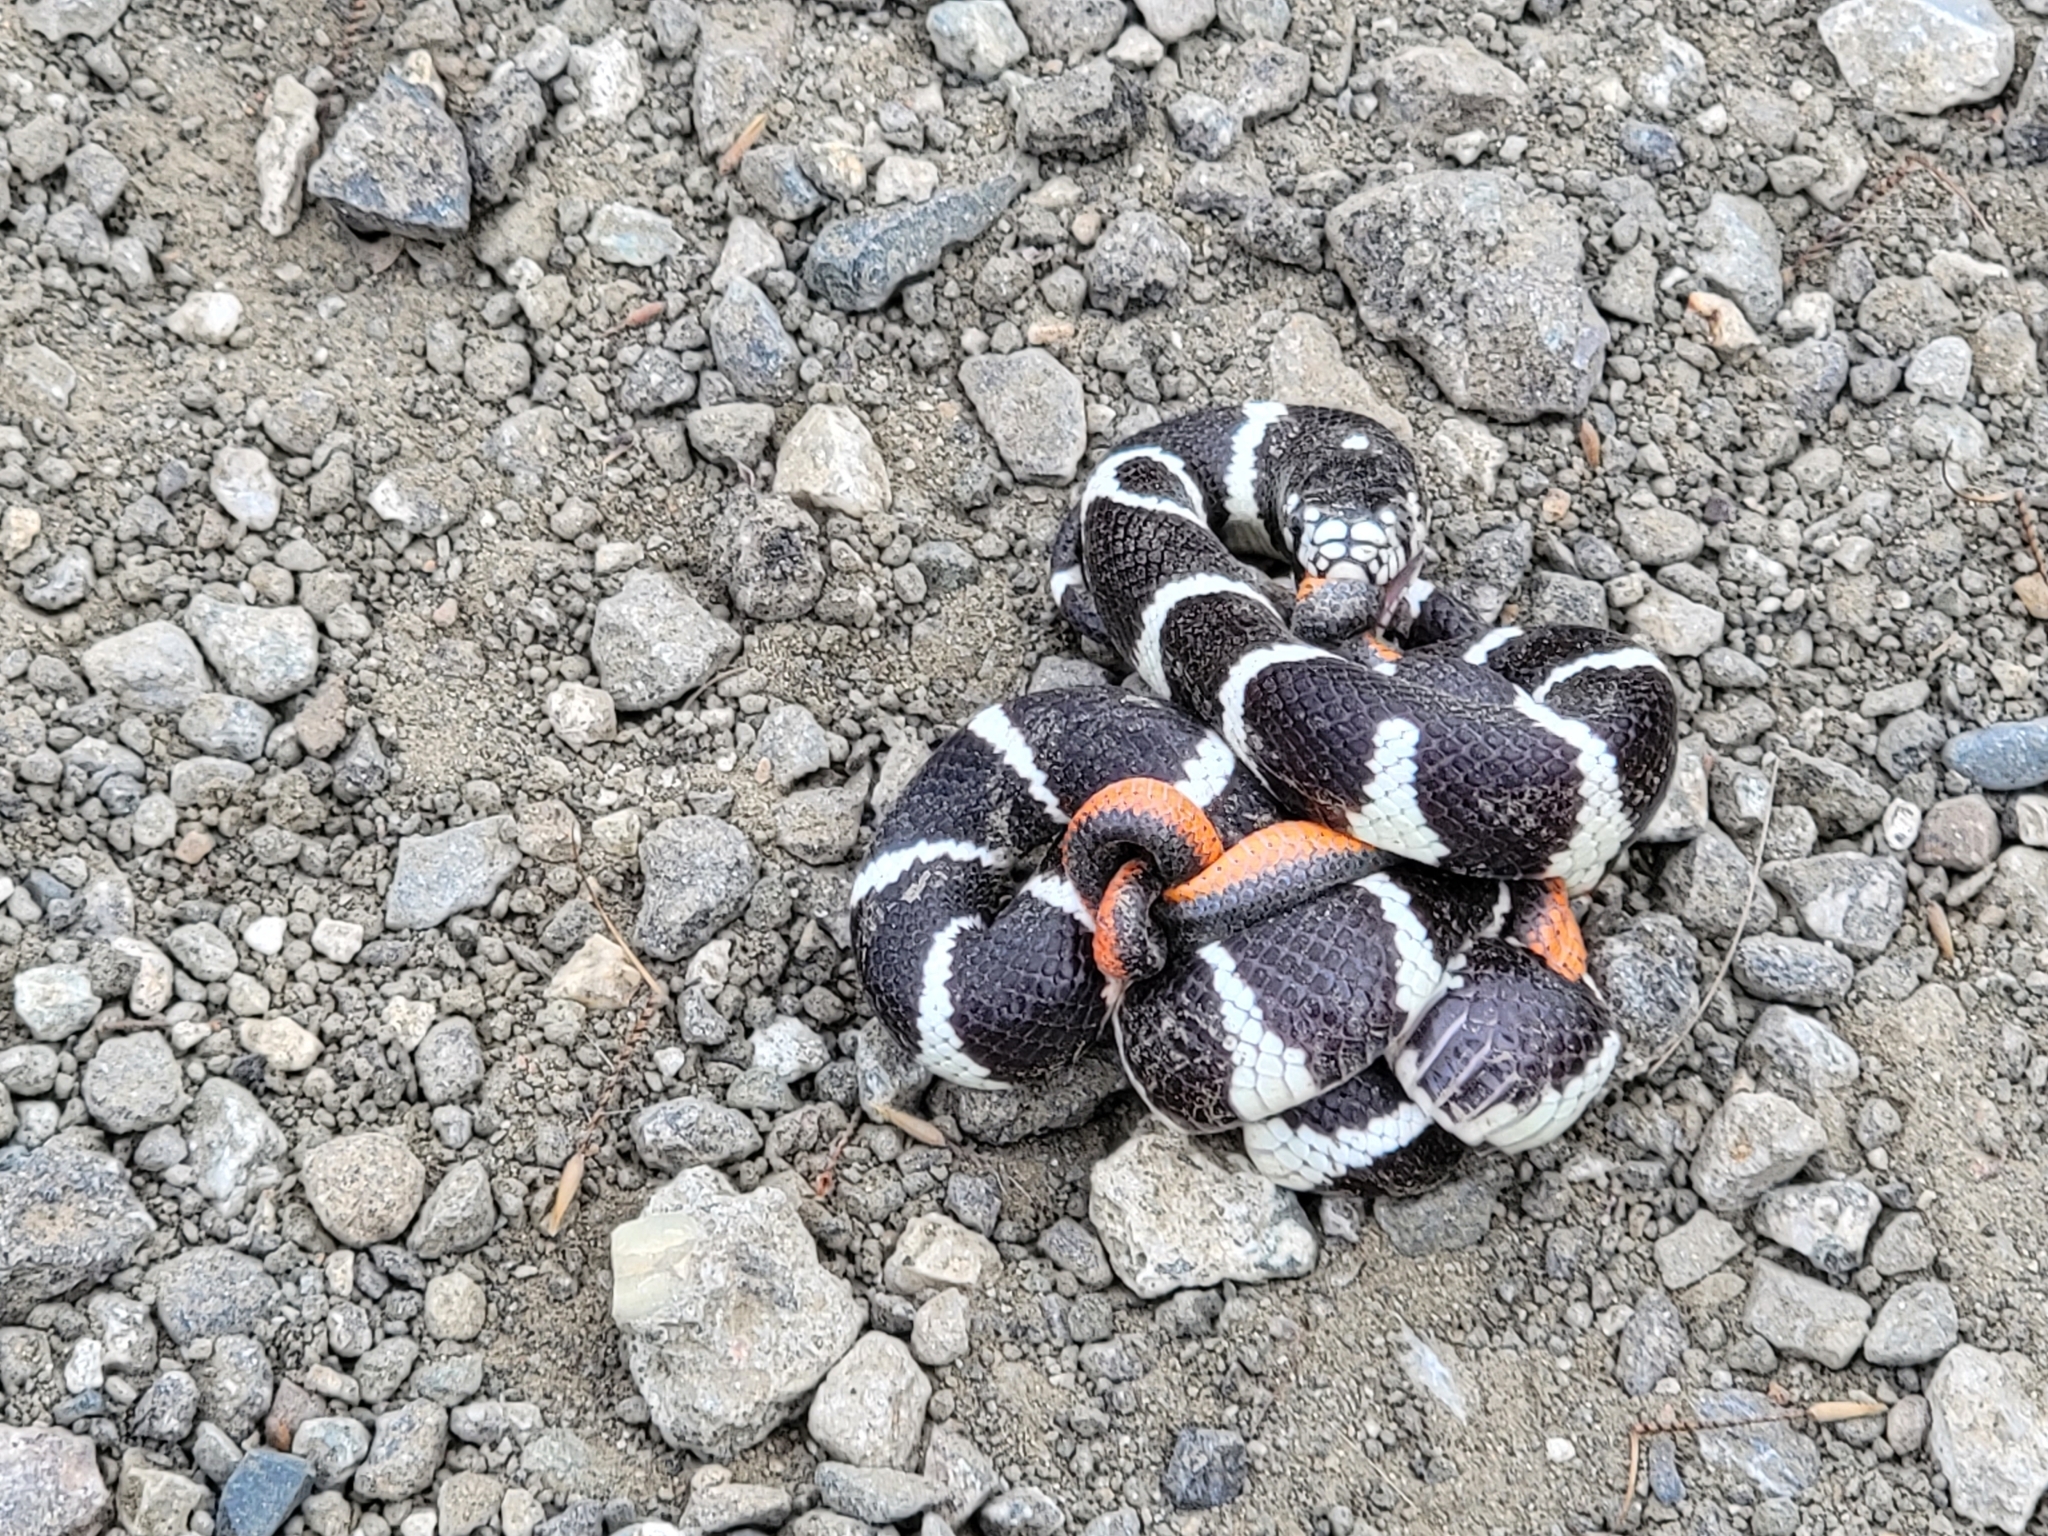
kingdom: Animalia
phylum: Chordata
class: Squamata
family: Colubridae
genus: Lampropeltis
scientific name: Lampropeltis californiae
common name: California kingsnake
